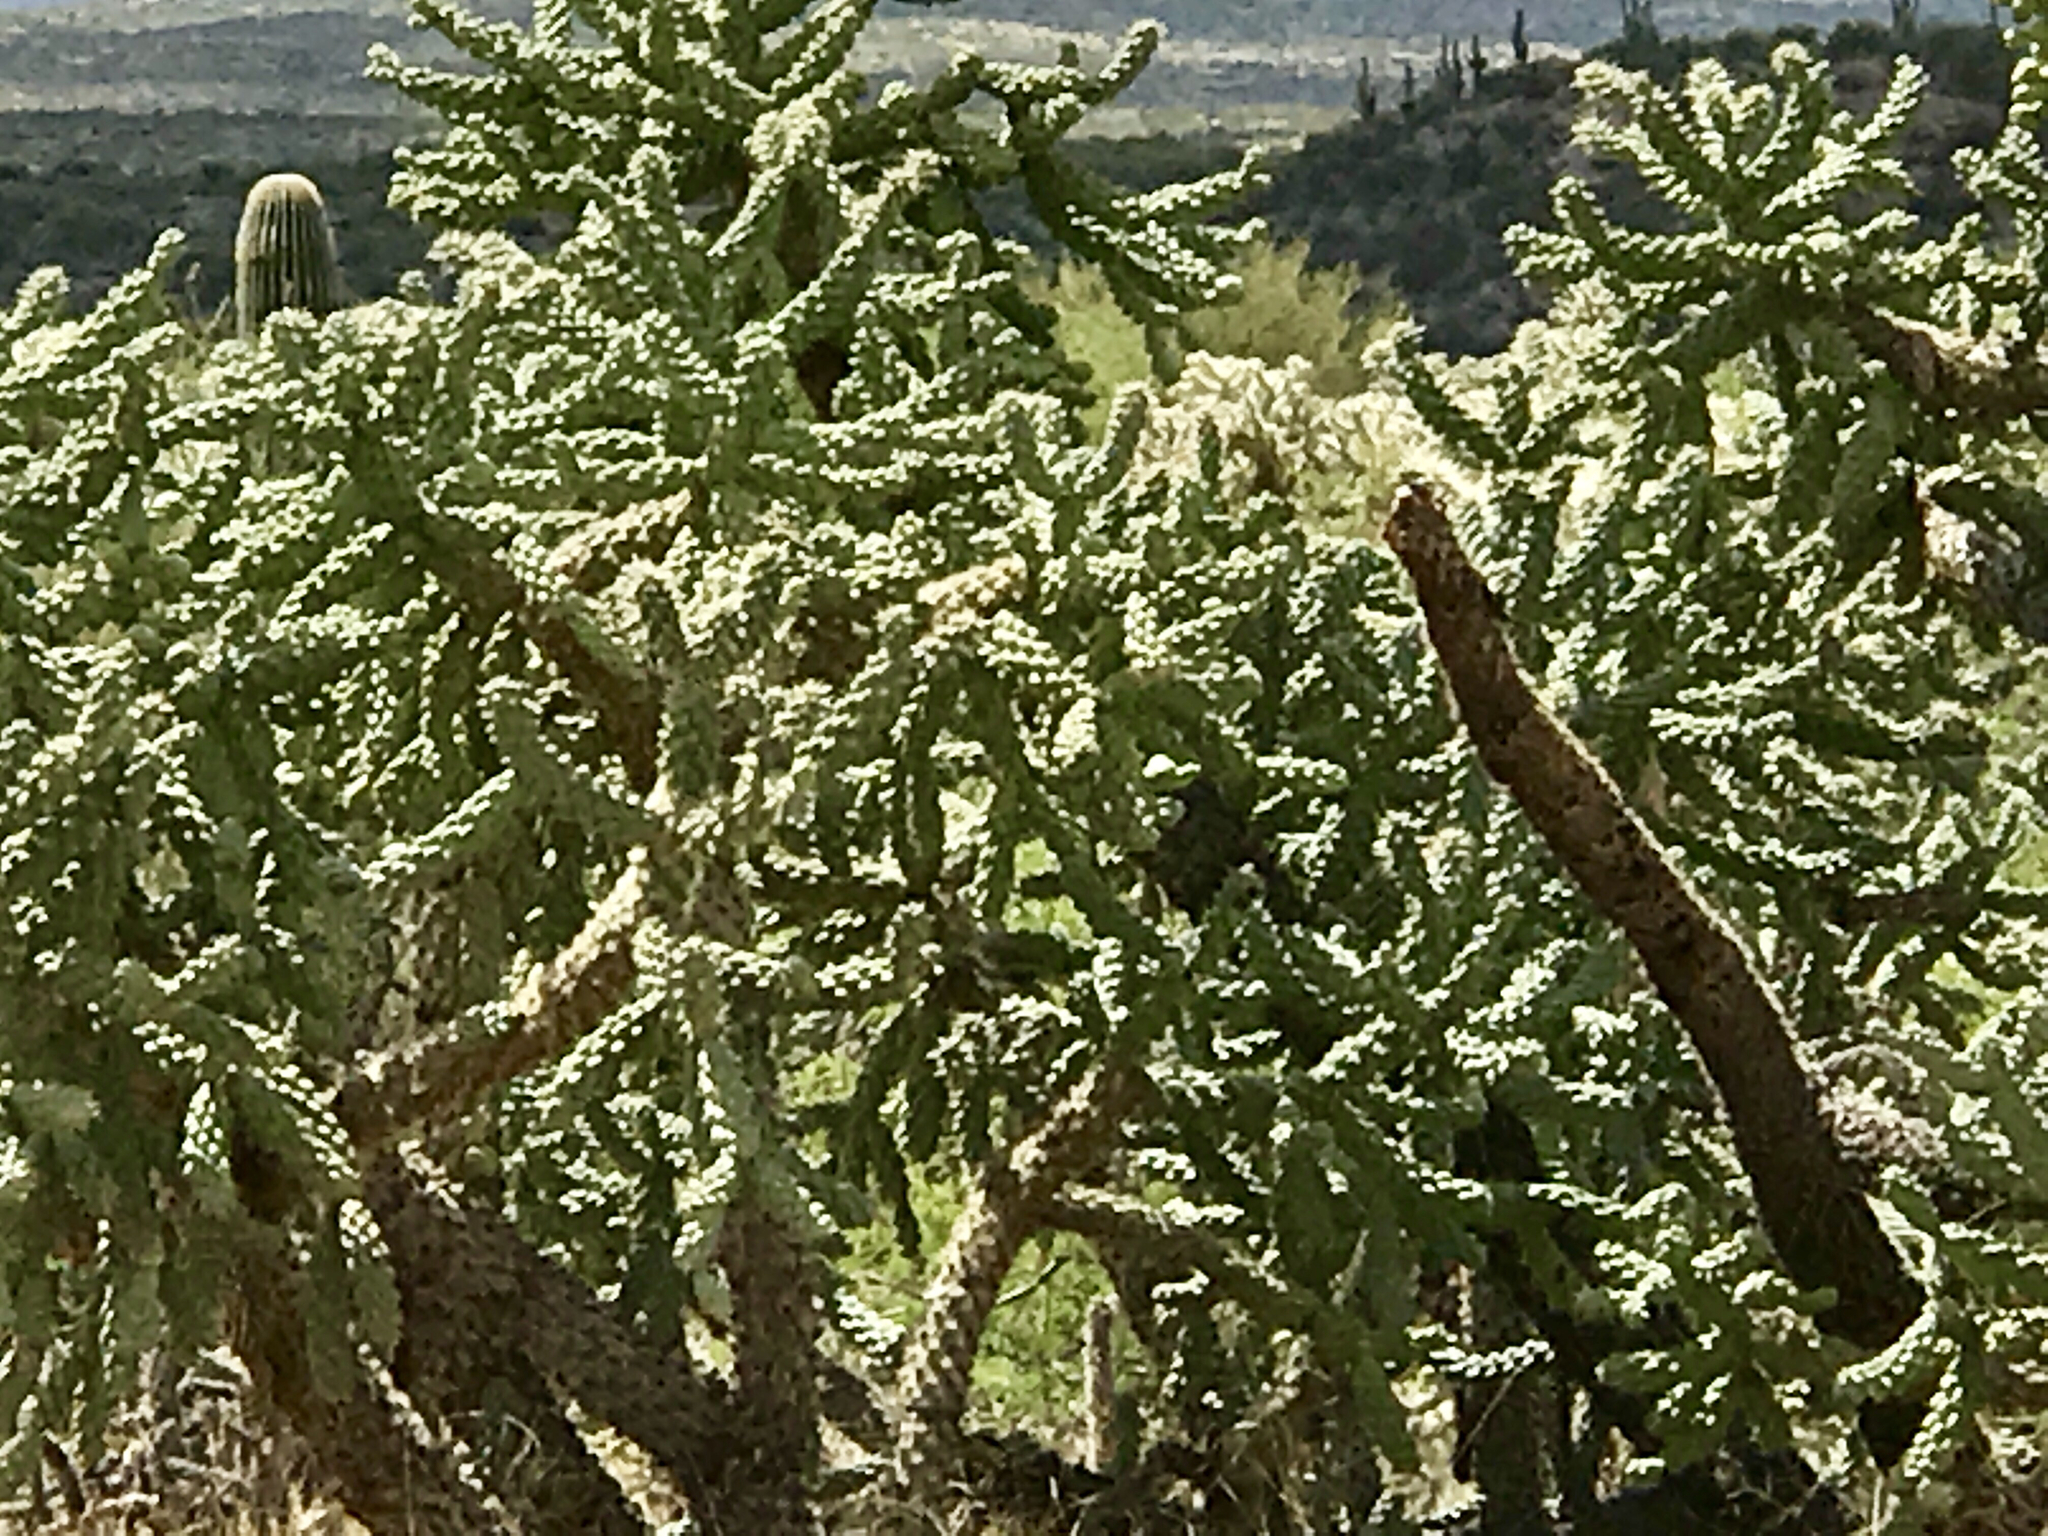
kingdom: Plantae
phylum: Tracheophyta
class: Magnoliopsida
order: Caryophyllales
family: Cactaceae
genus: Cylindropuntia
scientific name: Cylindropuntia fulgida
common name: Jumping cholla
